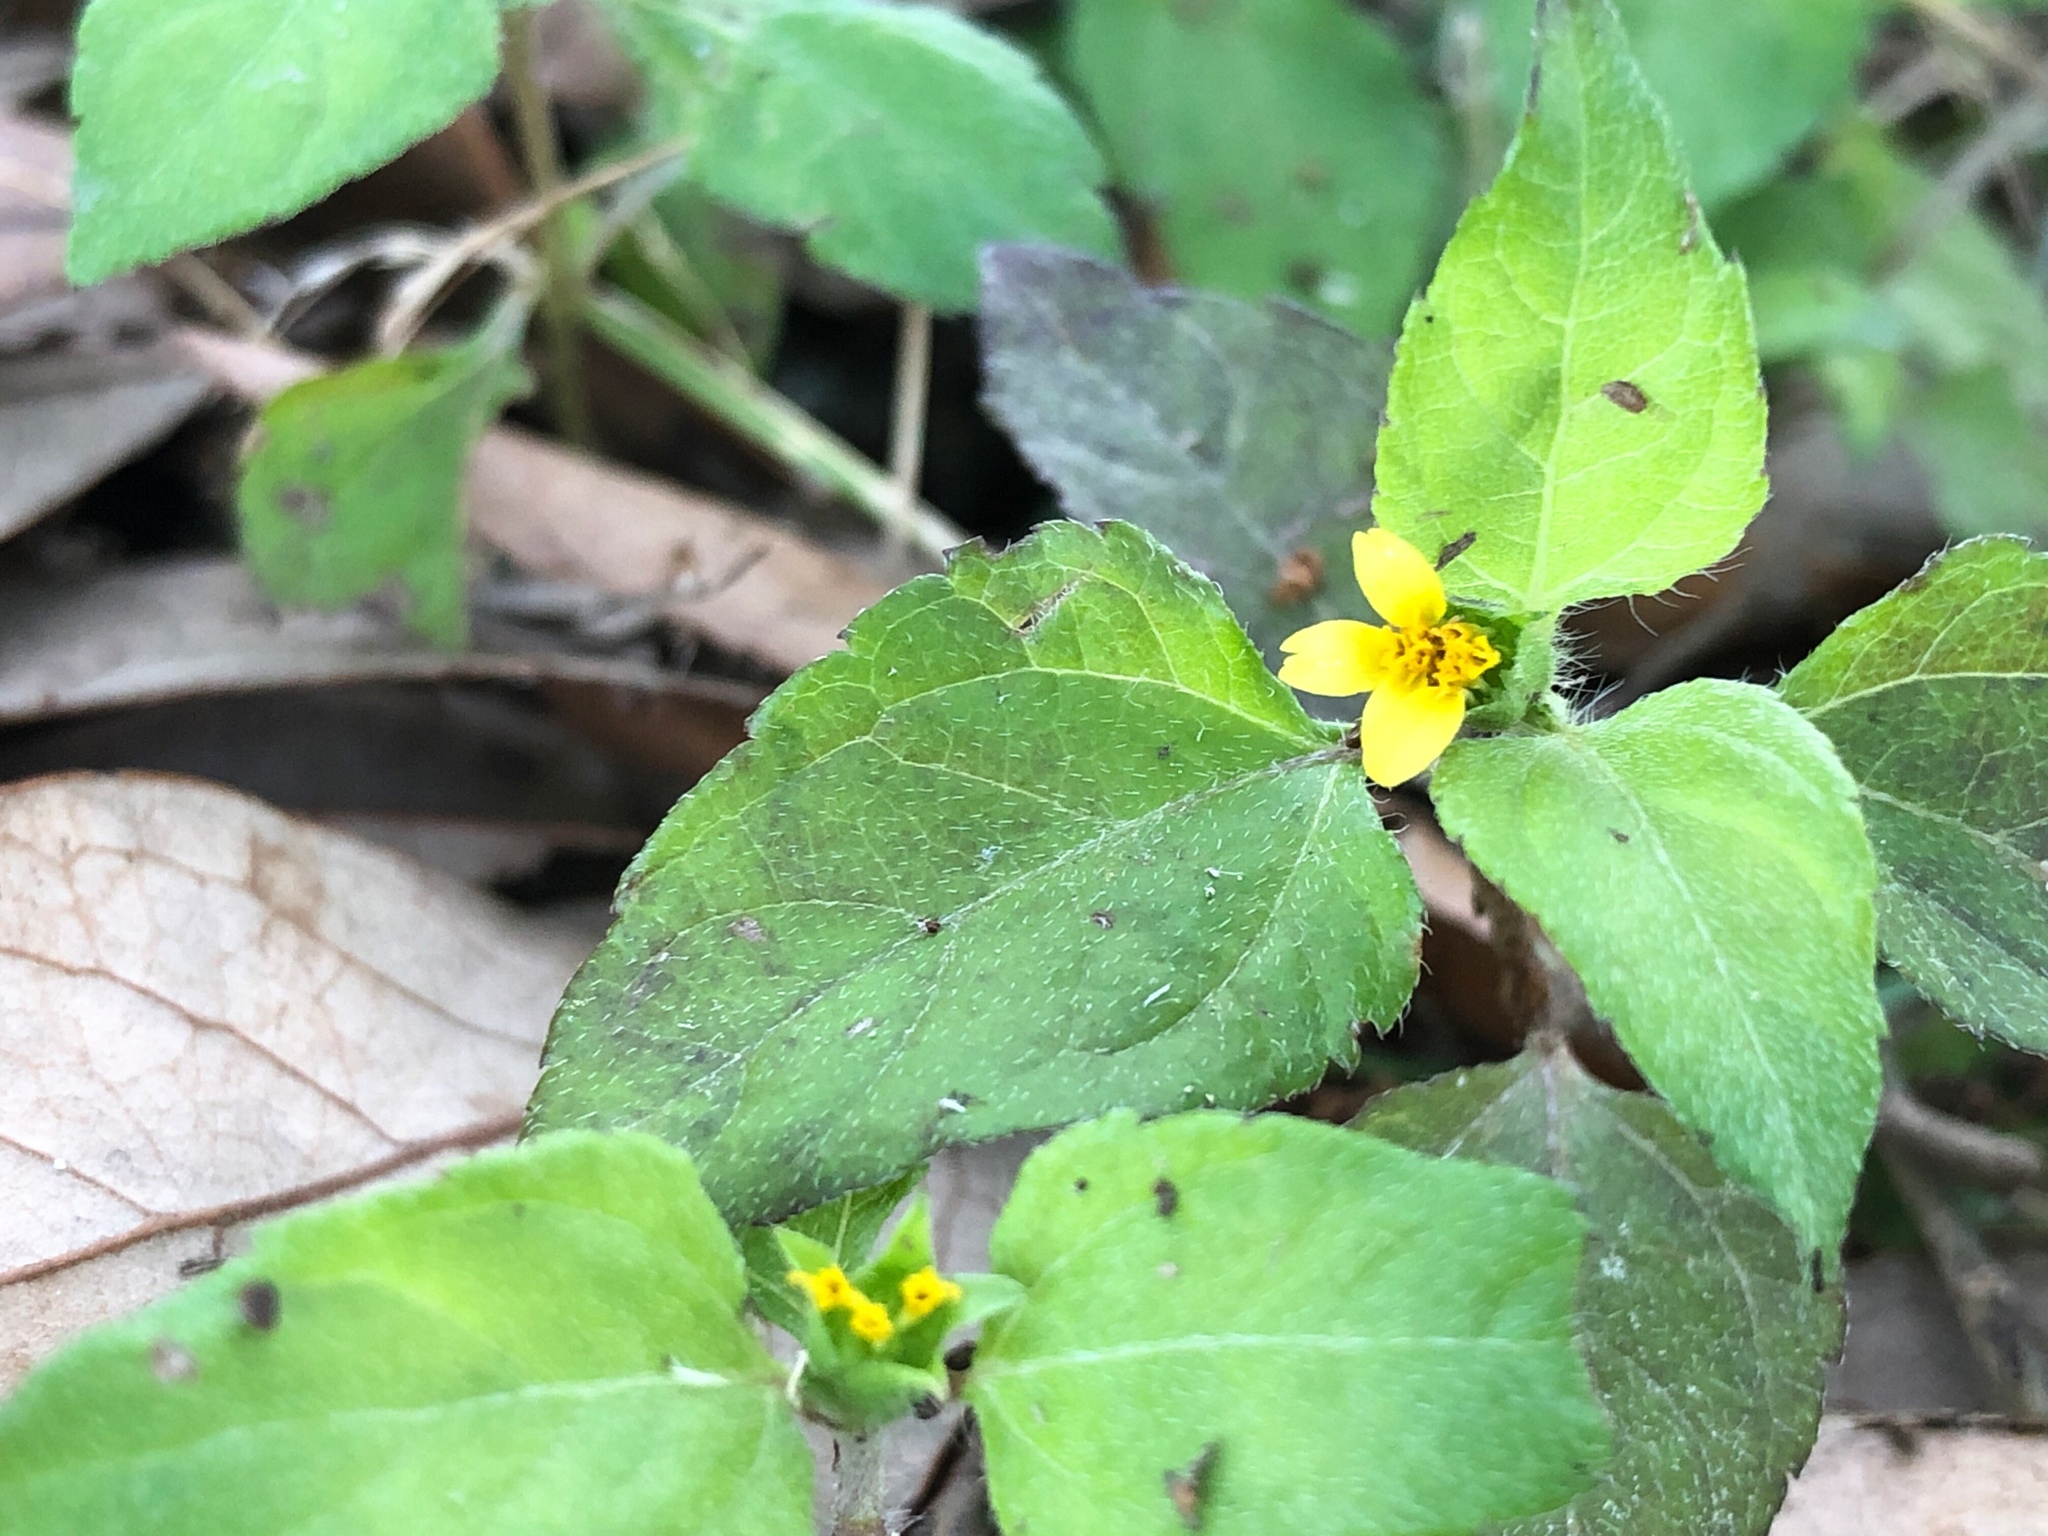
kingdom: Plantae
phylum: Tracheophyta
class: Magnoliopsida
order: Asterales
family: Asteraceae
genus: Calyptocarpus
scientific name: Calyptocarpus vialis
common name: Straggler daisy
